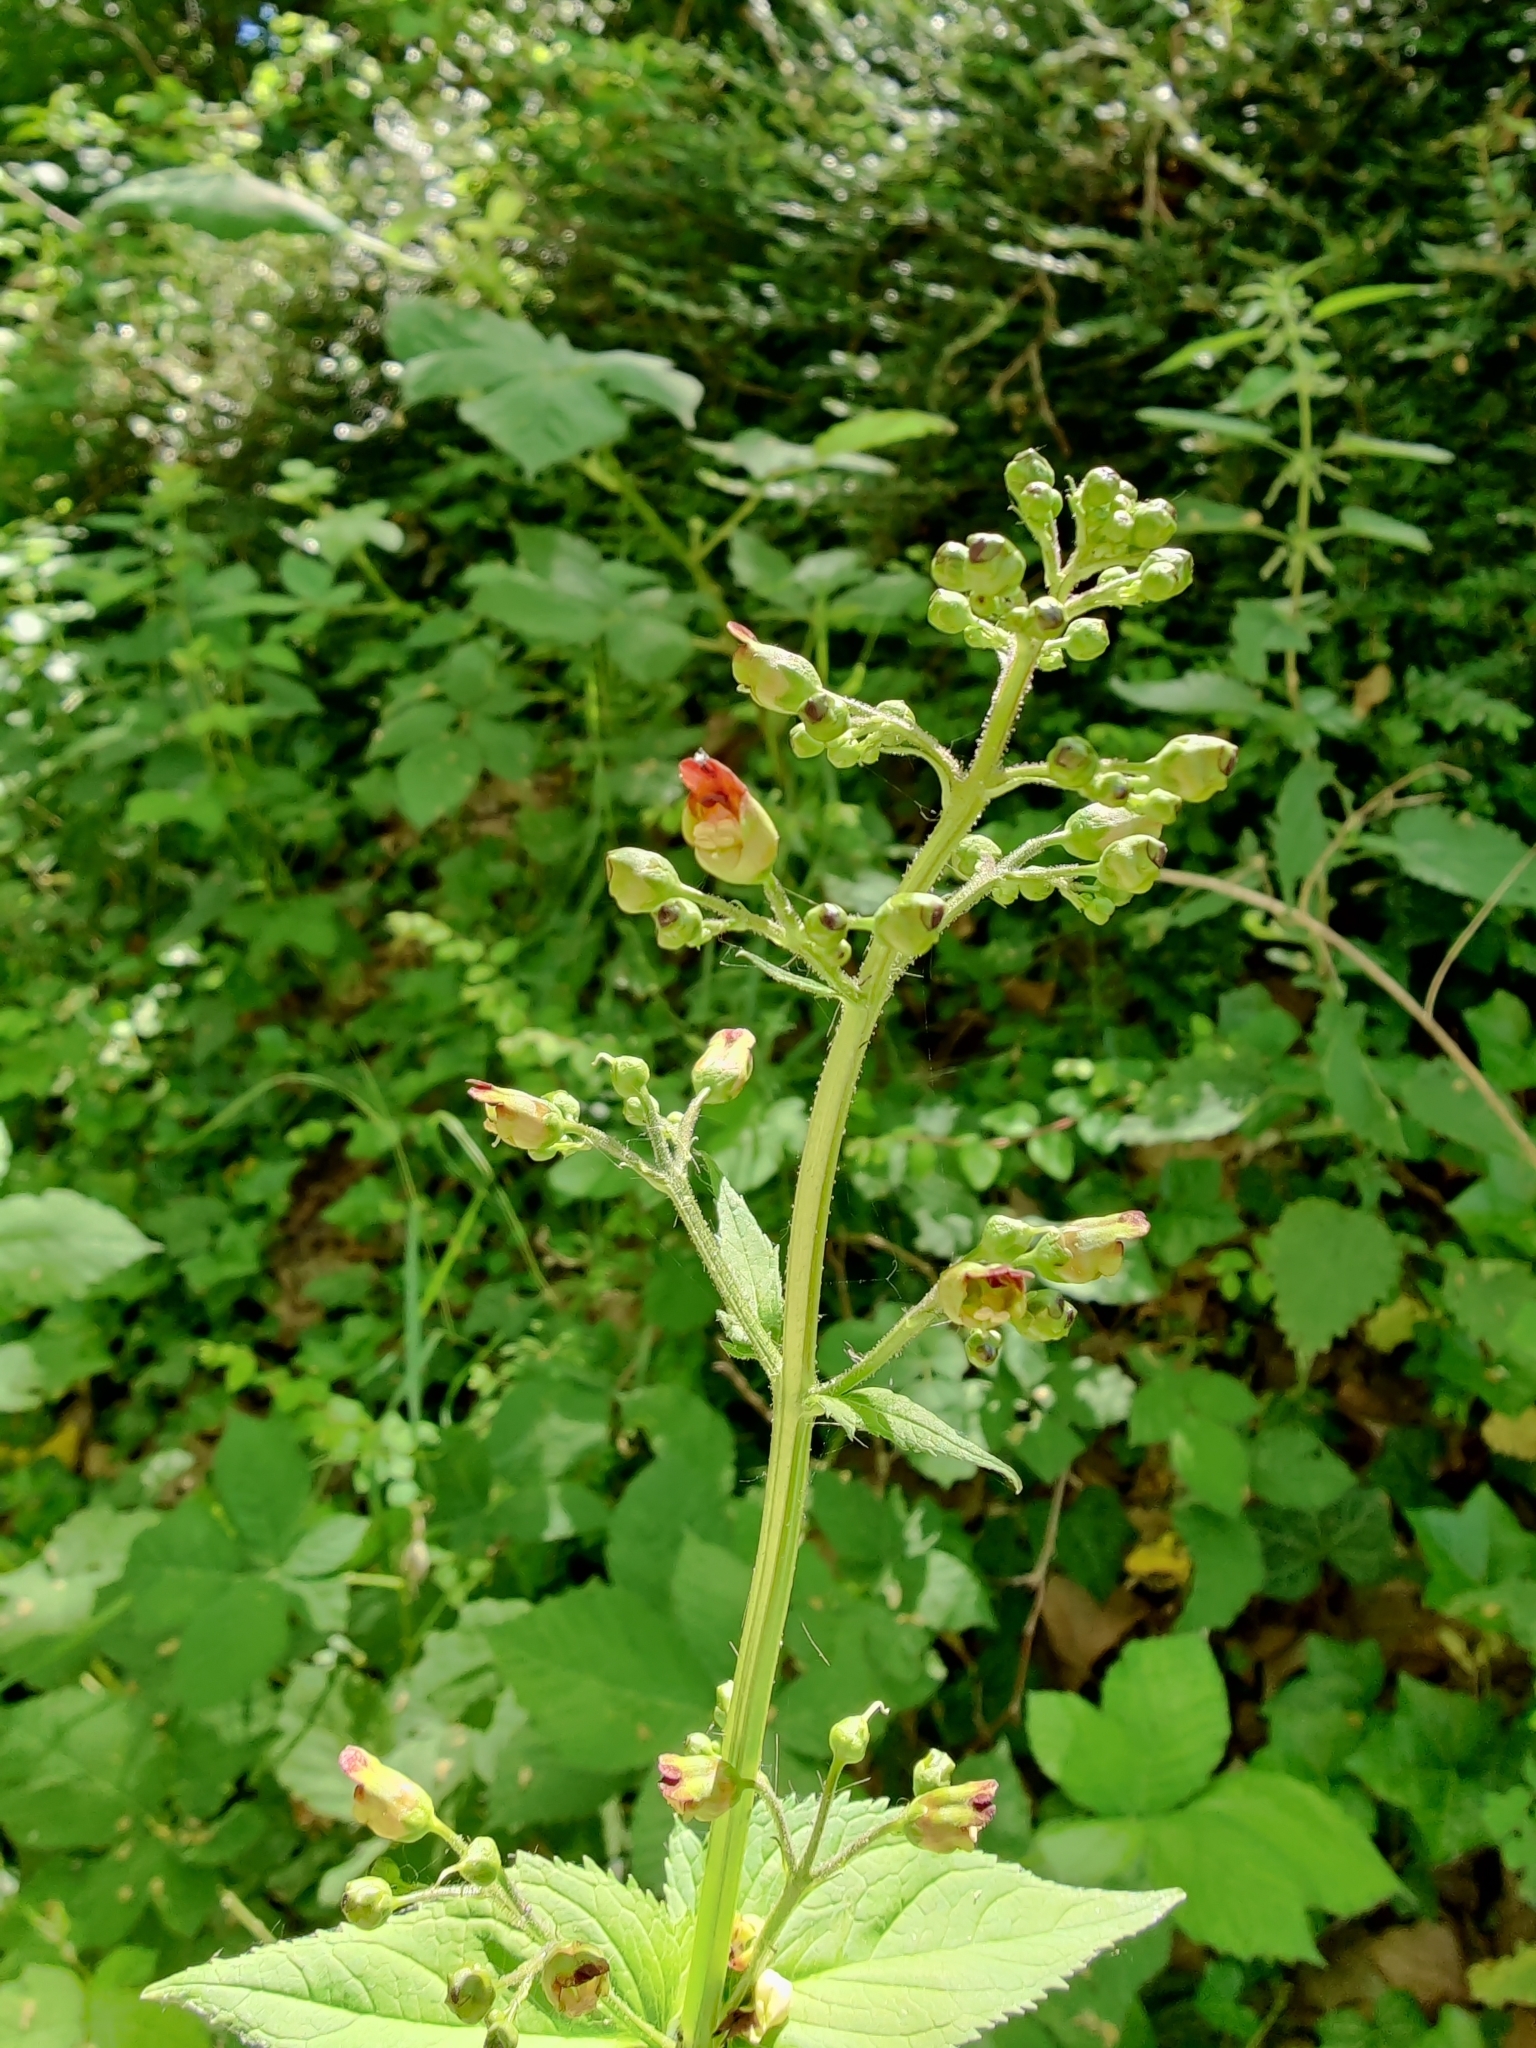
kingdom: Plantae
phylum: Tracheophyta
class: Magnoliopsida
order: Lamiales
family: Scrophulariaceae
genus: Scrophularia
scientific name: Scrophularia nodosa
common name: Common figwort
